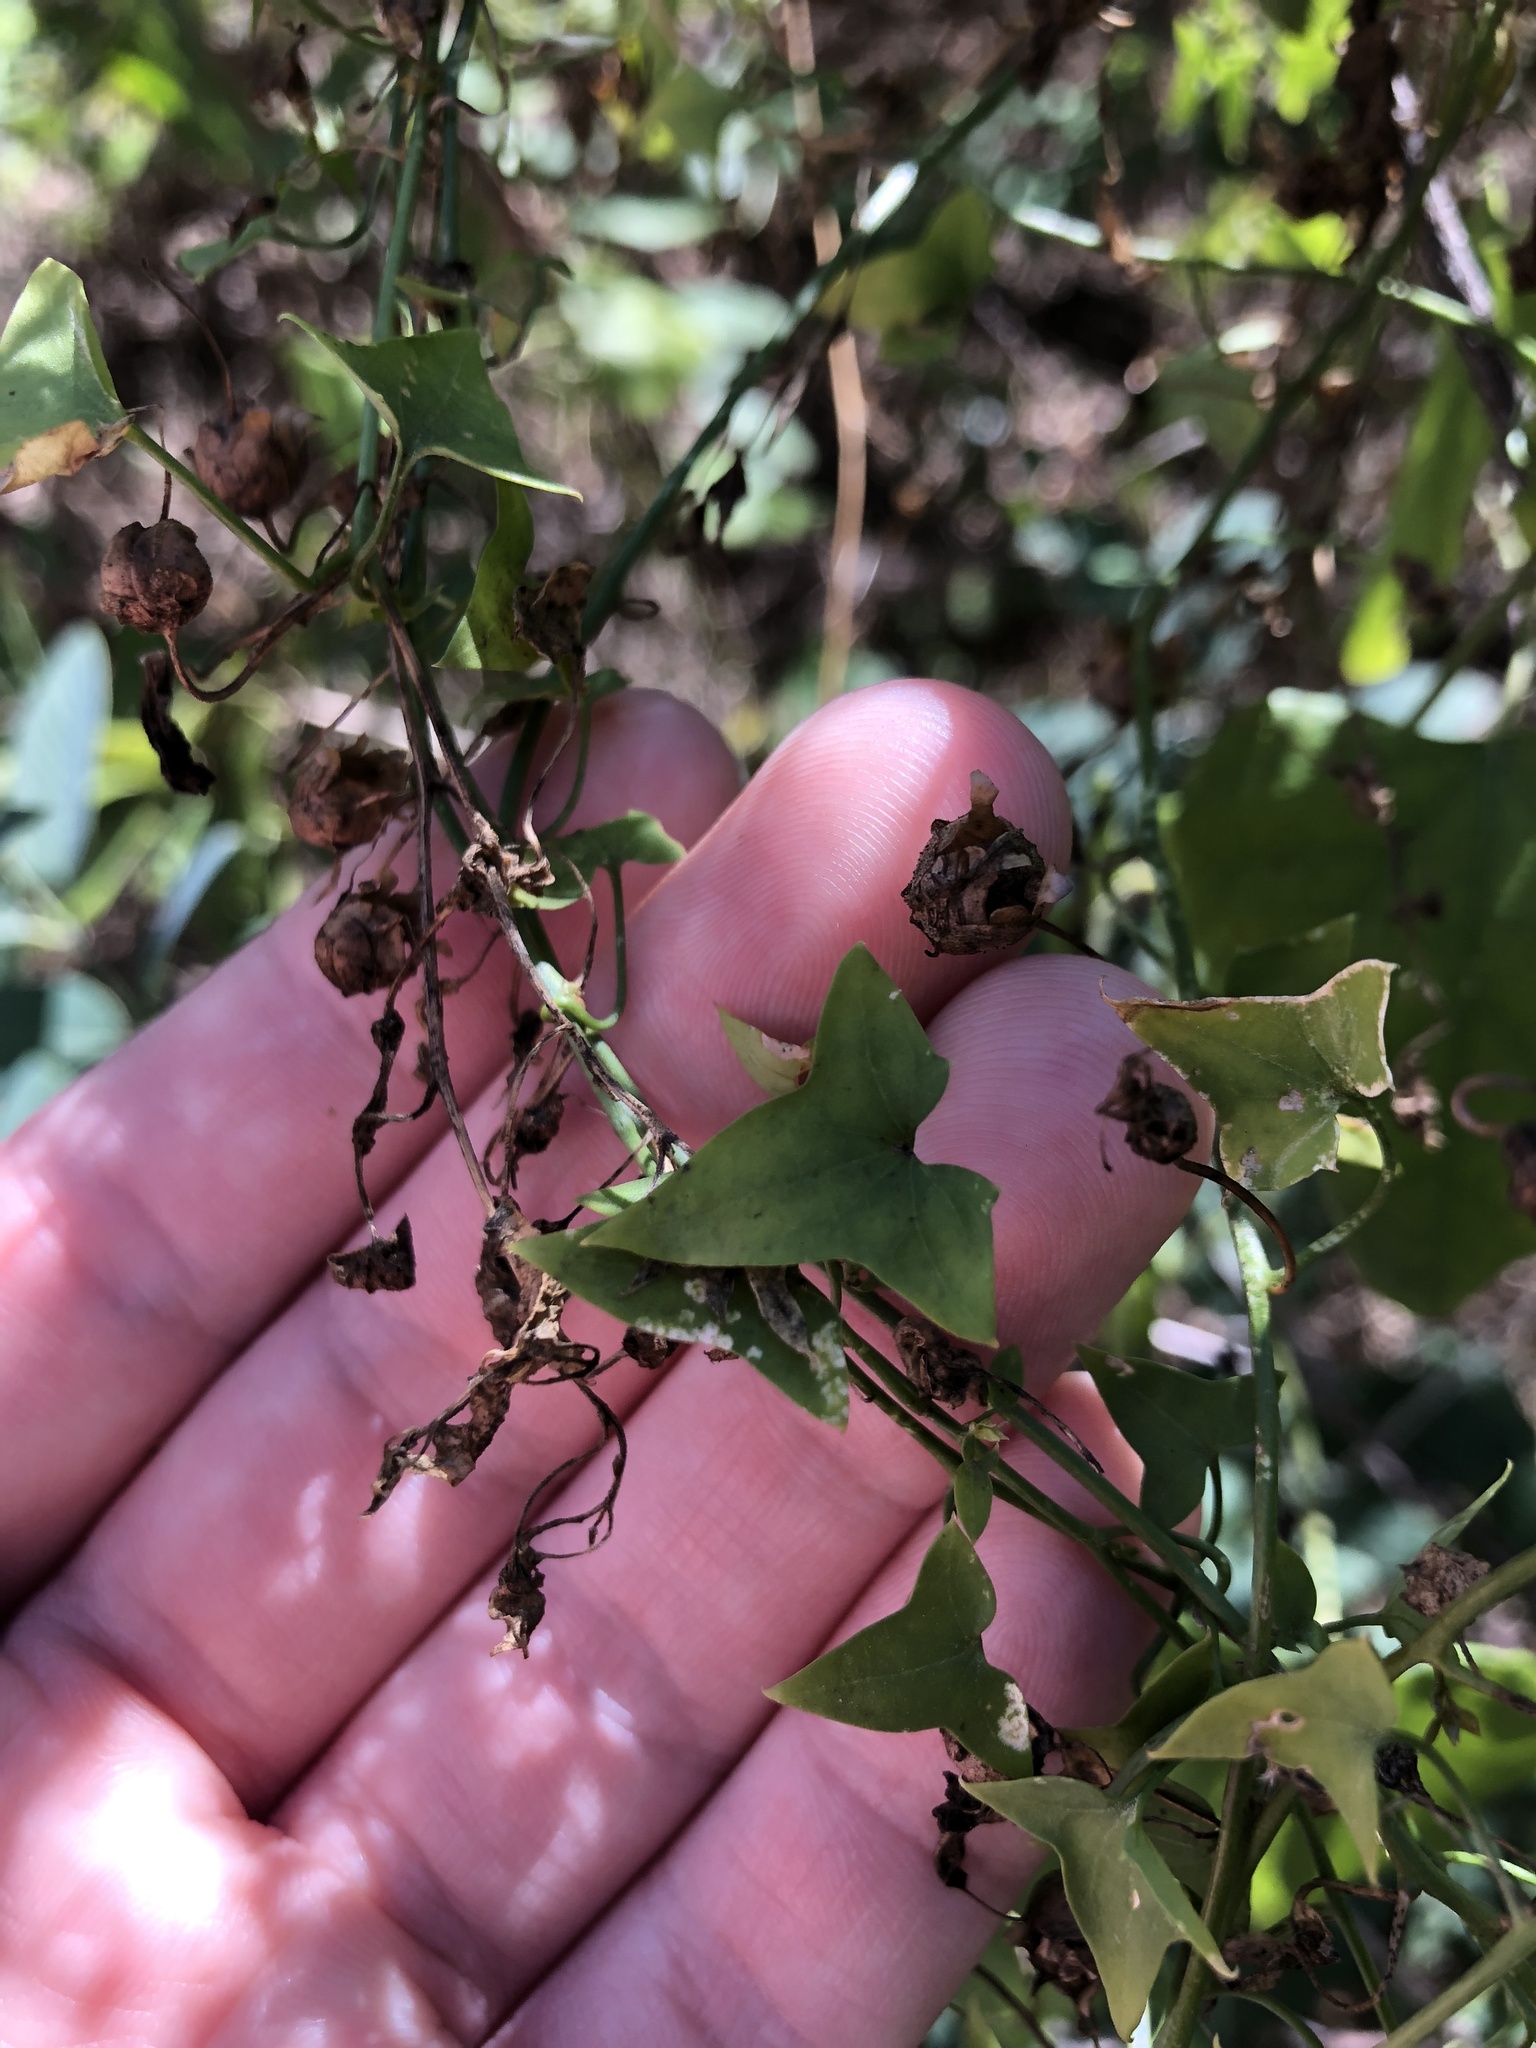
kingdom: Plantae
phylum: Tracheophyta
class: Magnoliopsida
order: Lamiales
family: Plantaginaceae
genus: Maurandella
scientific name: Maurandella antirrhiniflora
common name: Violet twining-snapdragon
